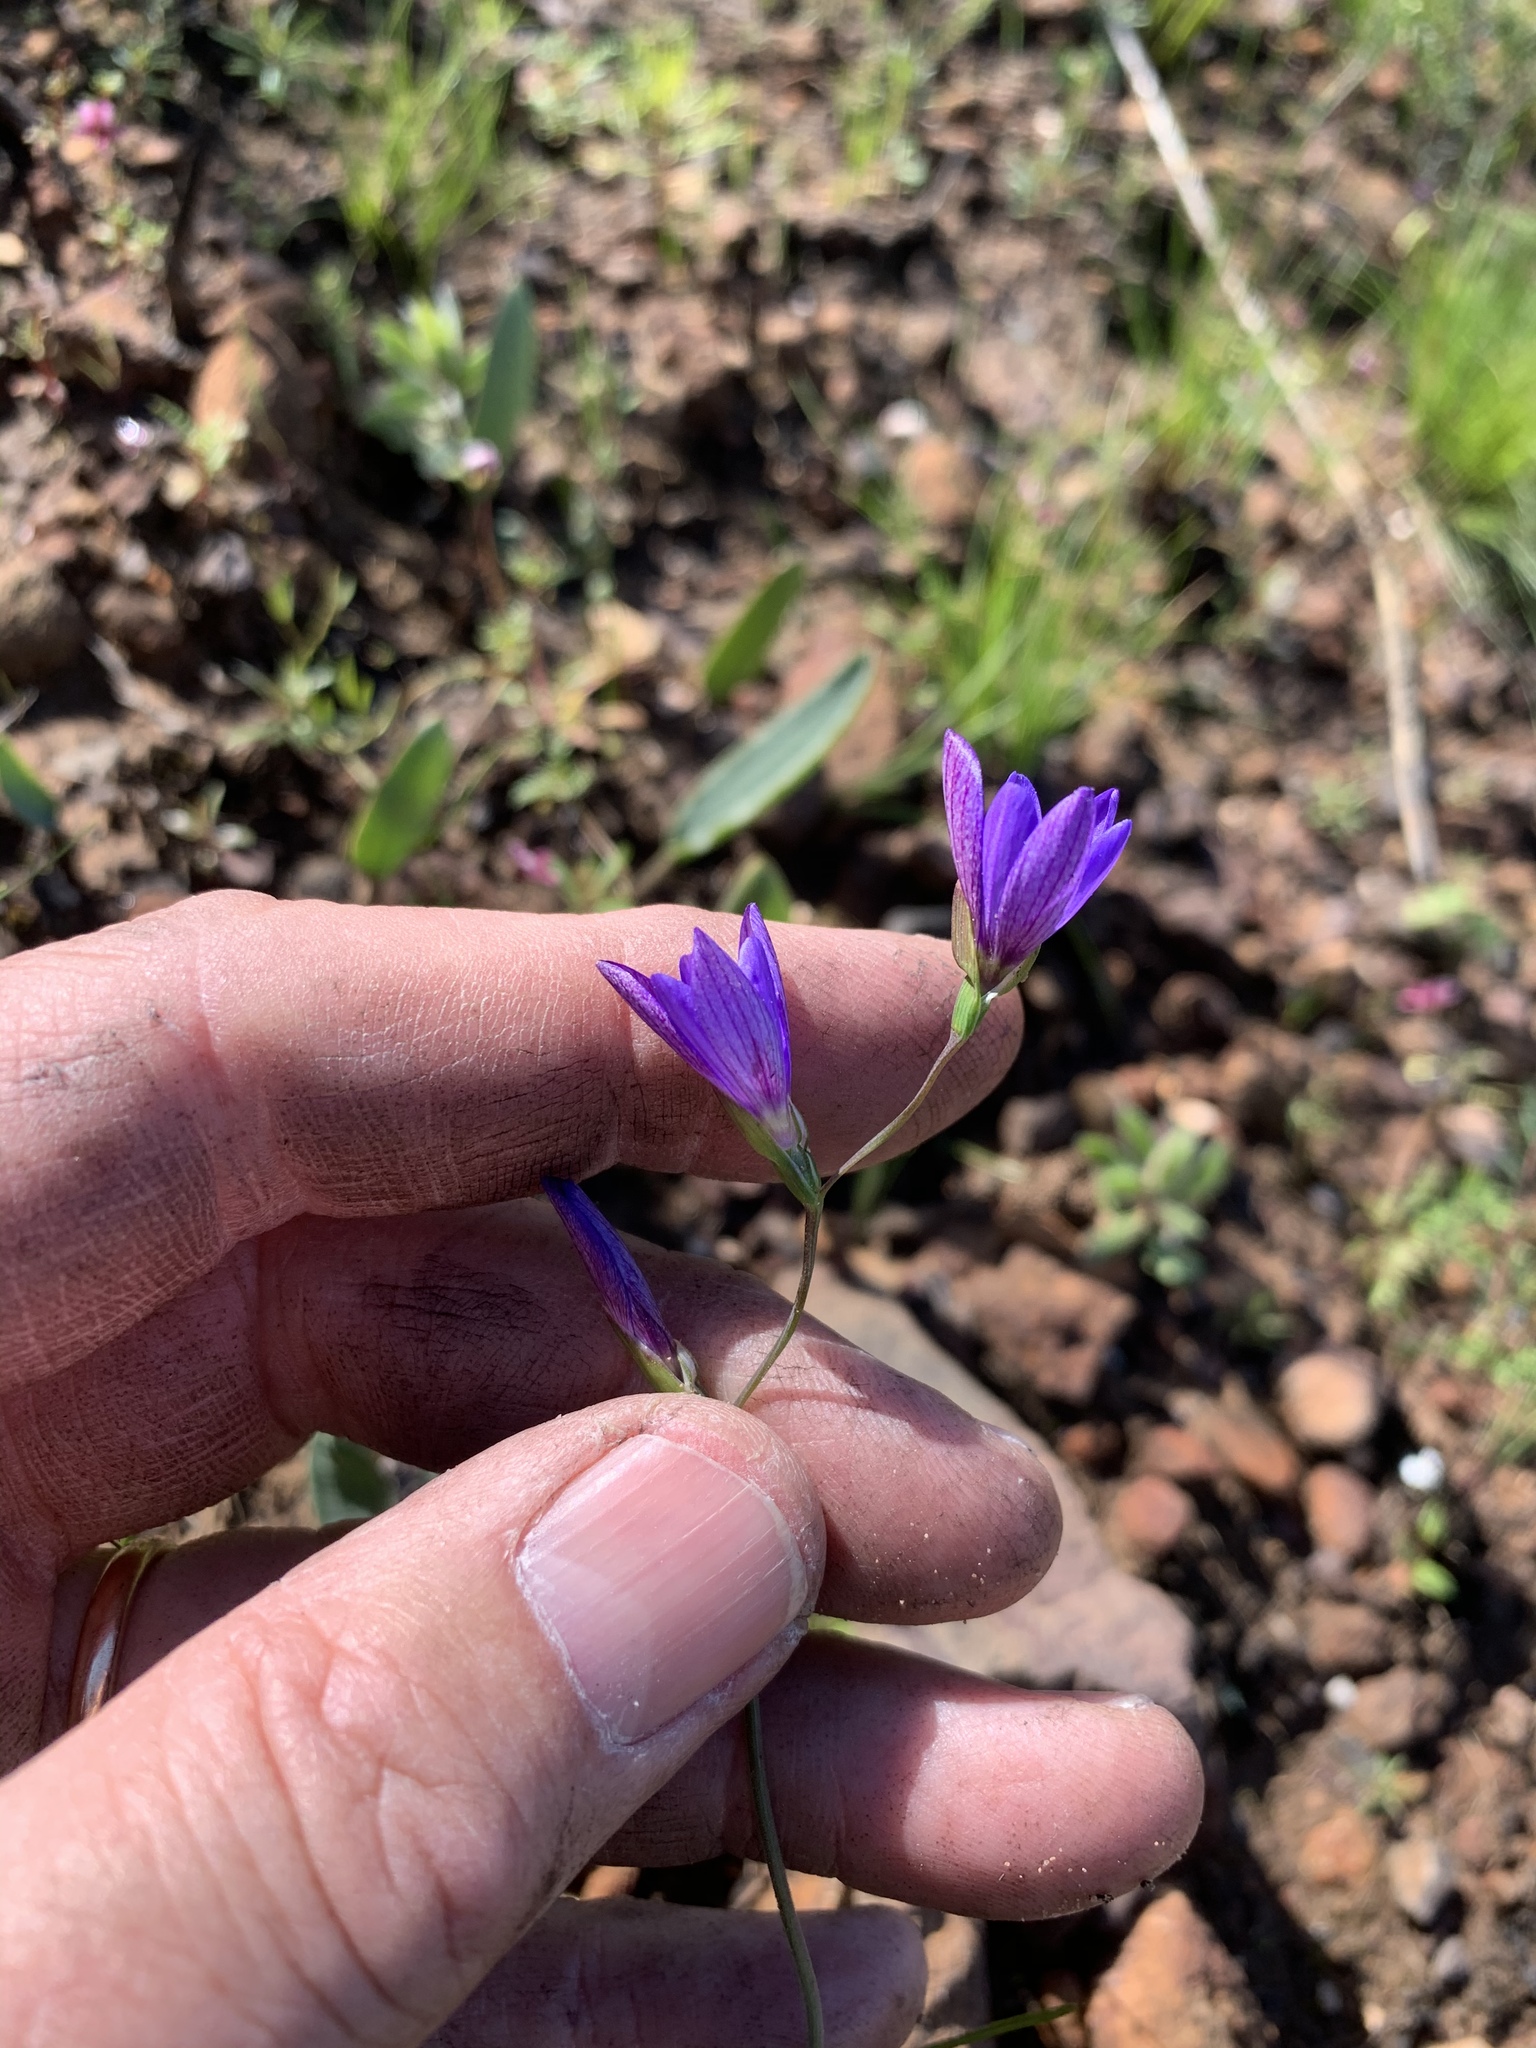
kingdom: Plantae
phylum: Tracheophyta
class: Liliopsida
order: Asparagales
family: Iridaceae
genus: Geissorhiza
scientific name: Geissorhiza aspera
